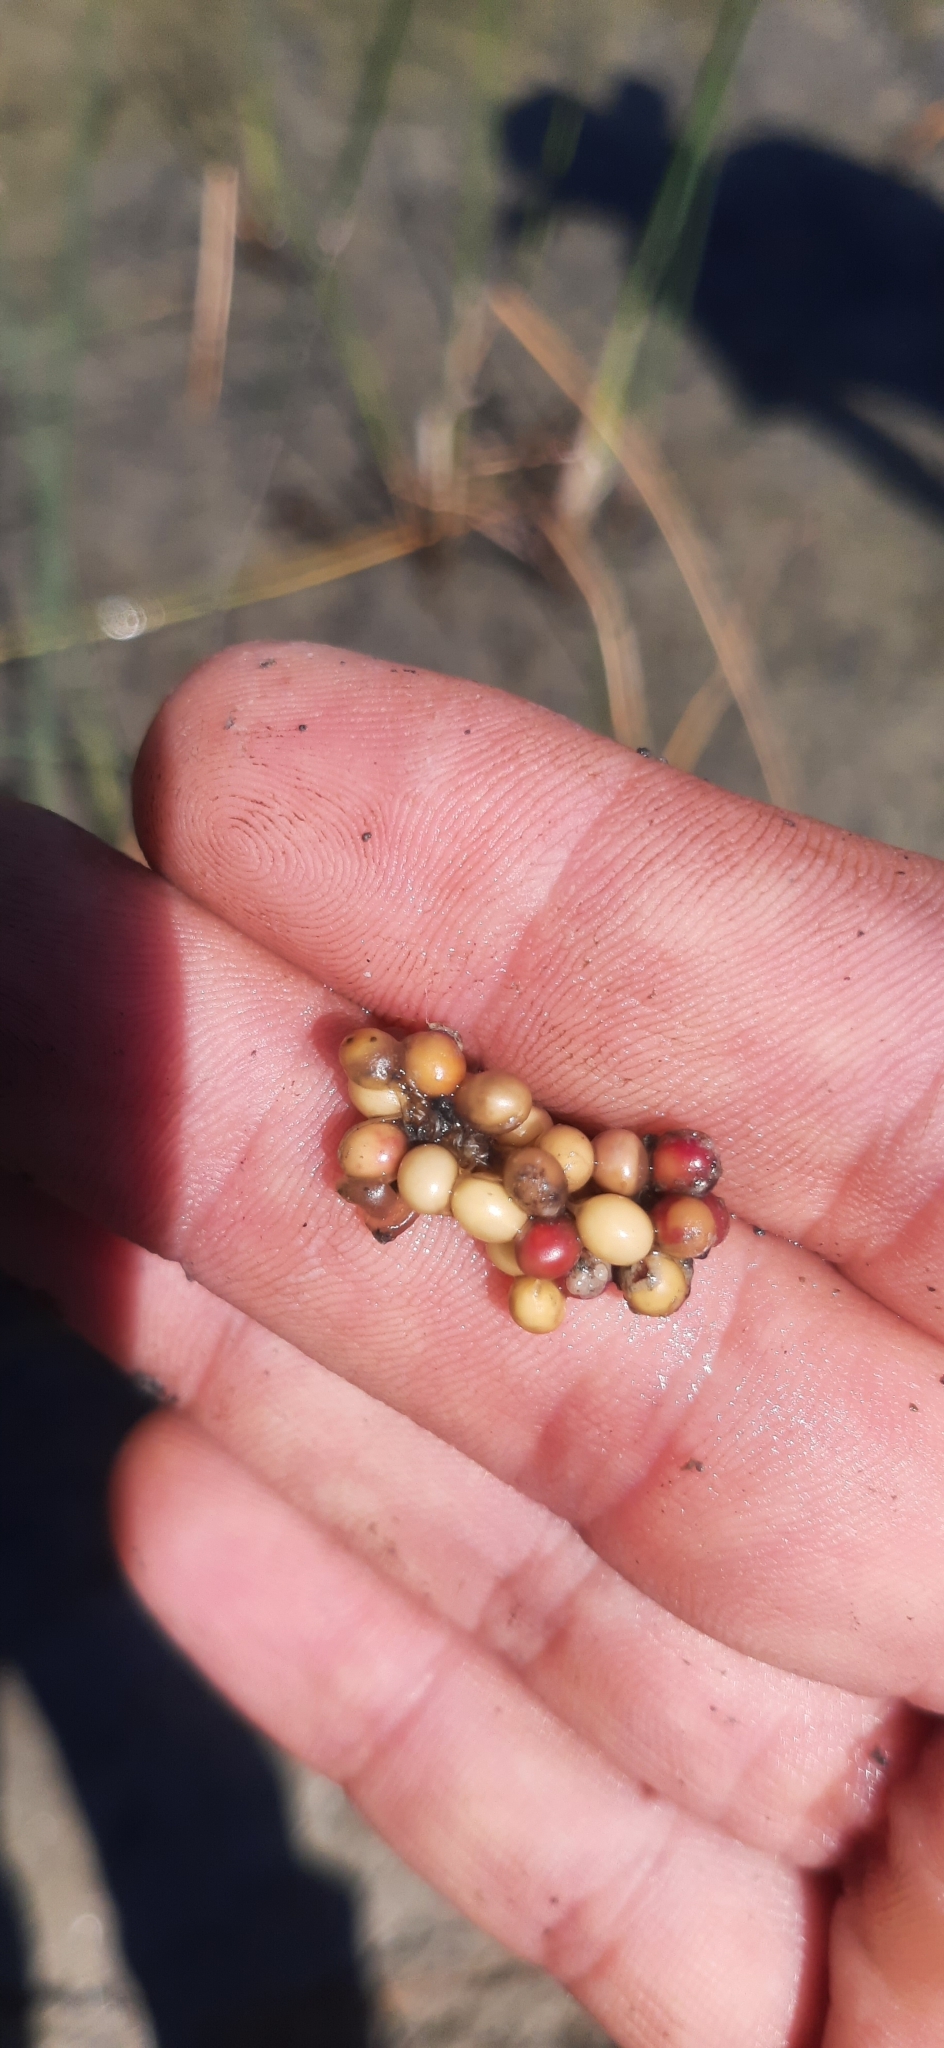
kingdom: Animalia
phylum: Chordata
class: Amphibia
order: Anura
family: Alytidae
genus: Alytes
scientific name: Alytes obstetricans
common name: Midwife toad
